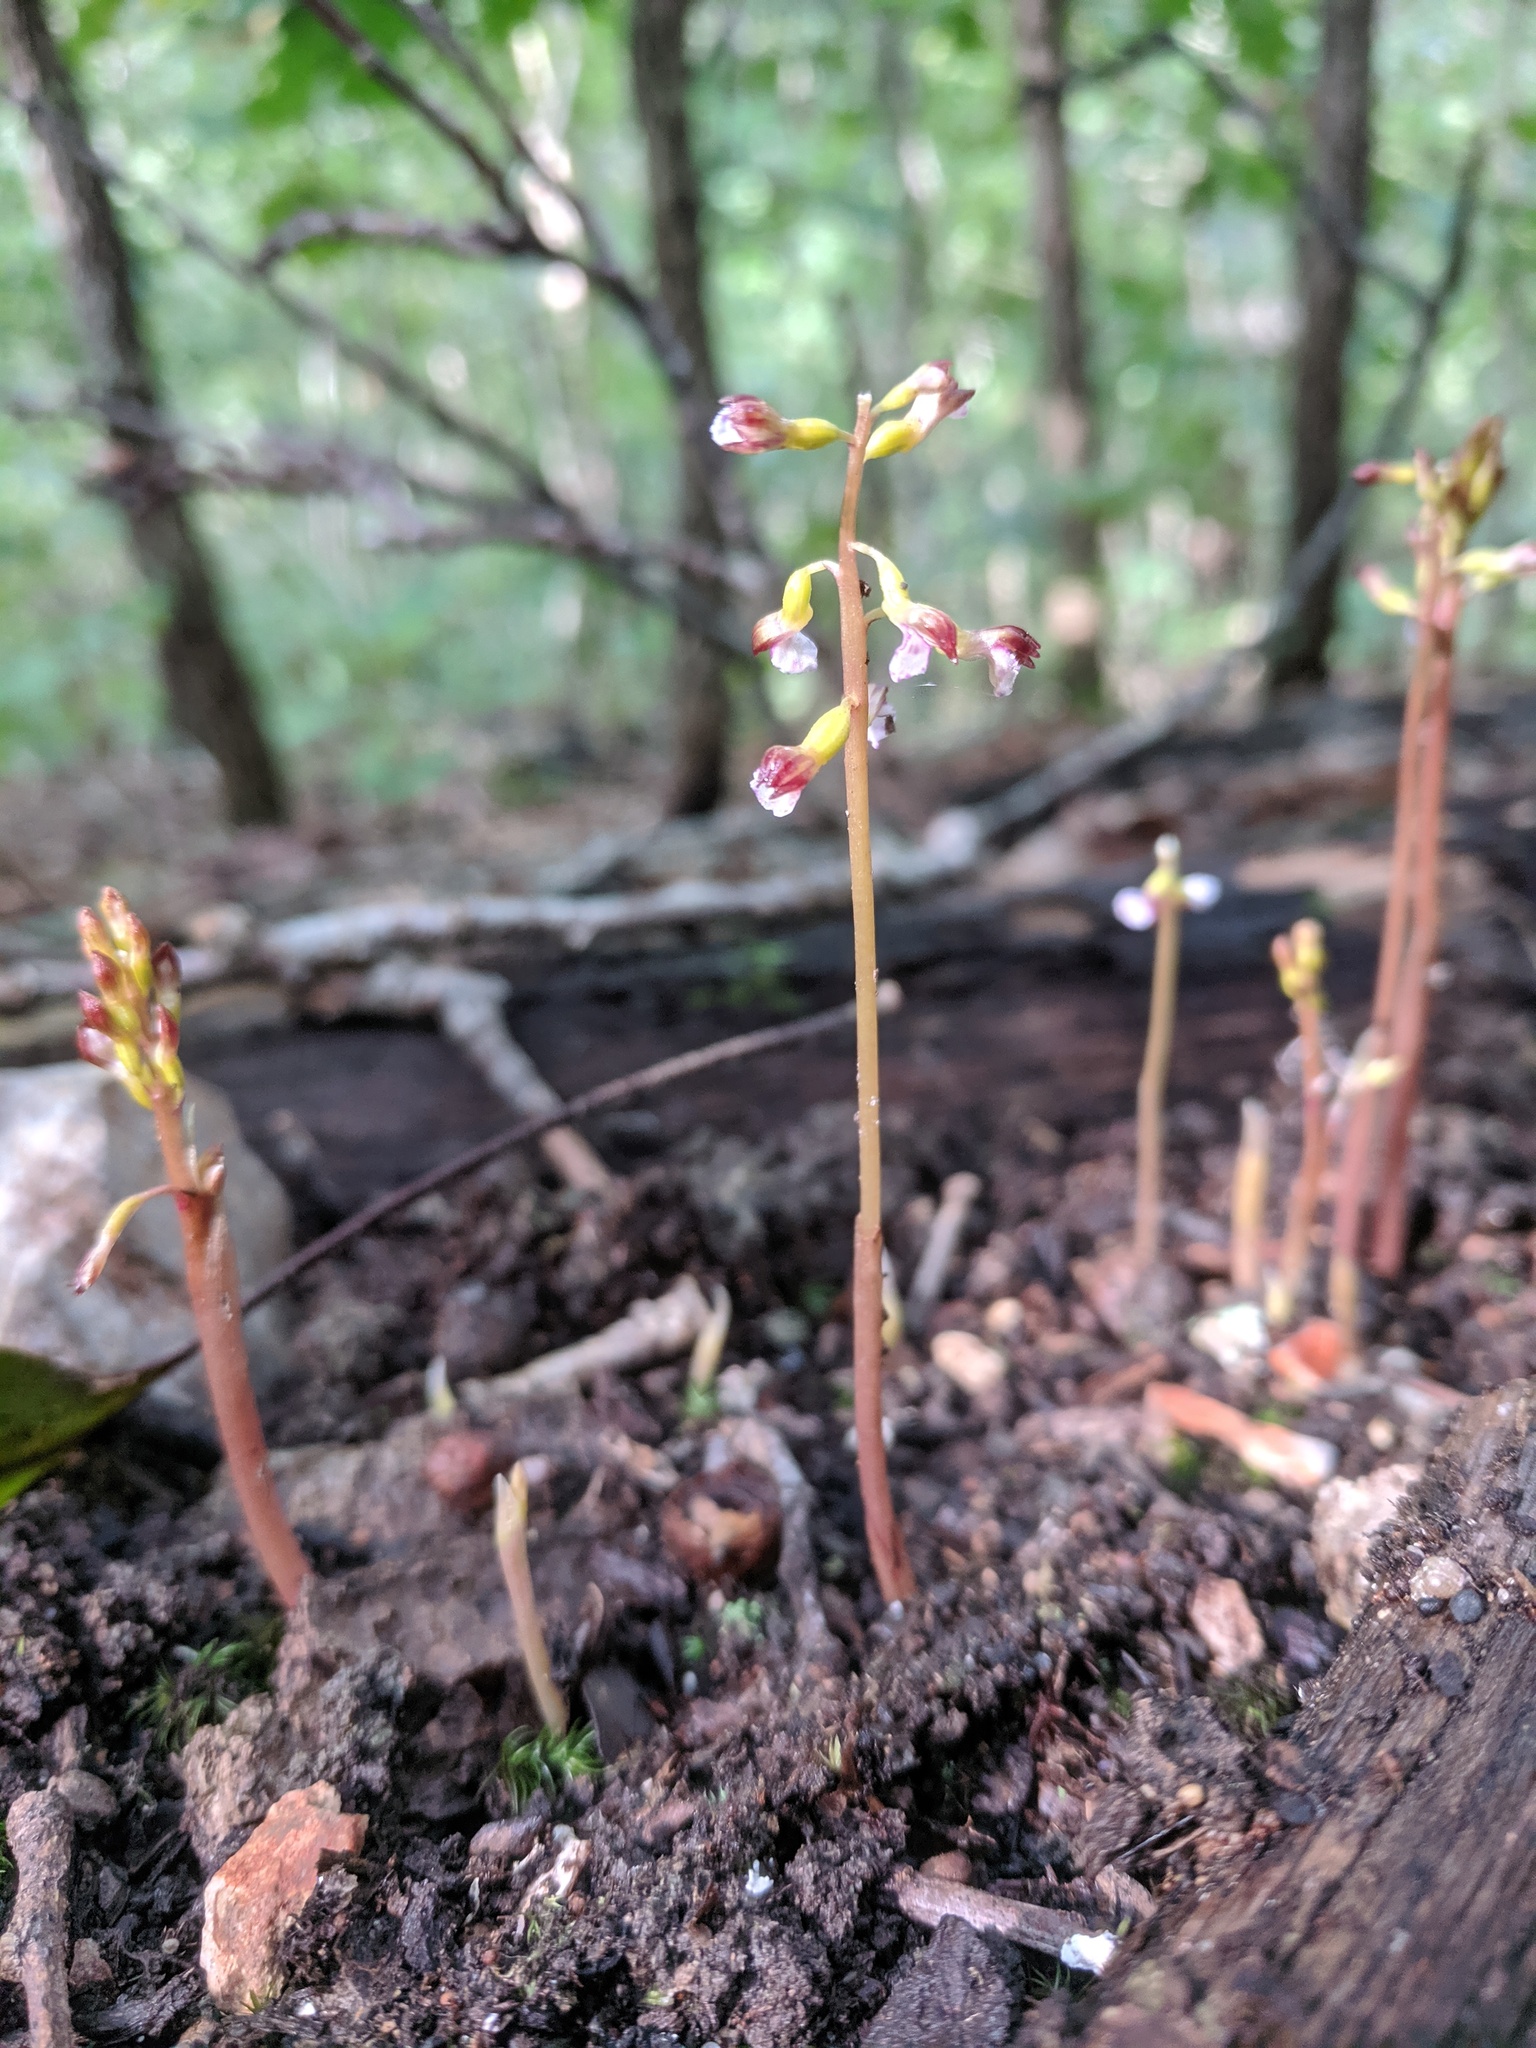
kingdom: Plantae
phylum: Tracheophyta
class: Liliopsida
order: Asparagales
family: Orchidaceae
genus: Corallorhiza
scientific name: Corallorhiza odontorhiza
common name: Autumn coralroot
